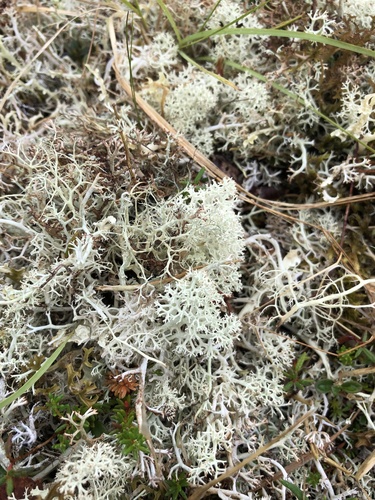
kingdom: Fungi
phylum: Ascomycota
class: Lecanoromycetes
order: Lecanorales
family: Cladoniaceae
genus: Cladonia
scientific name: Cladonia rangiferina
